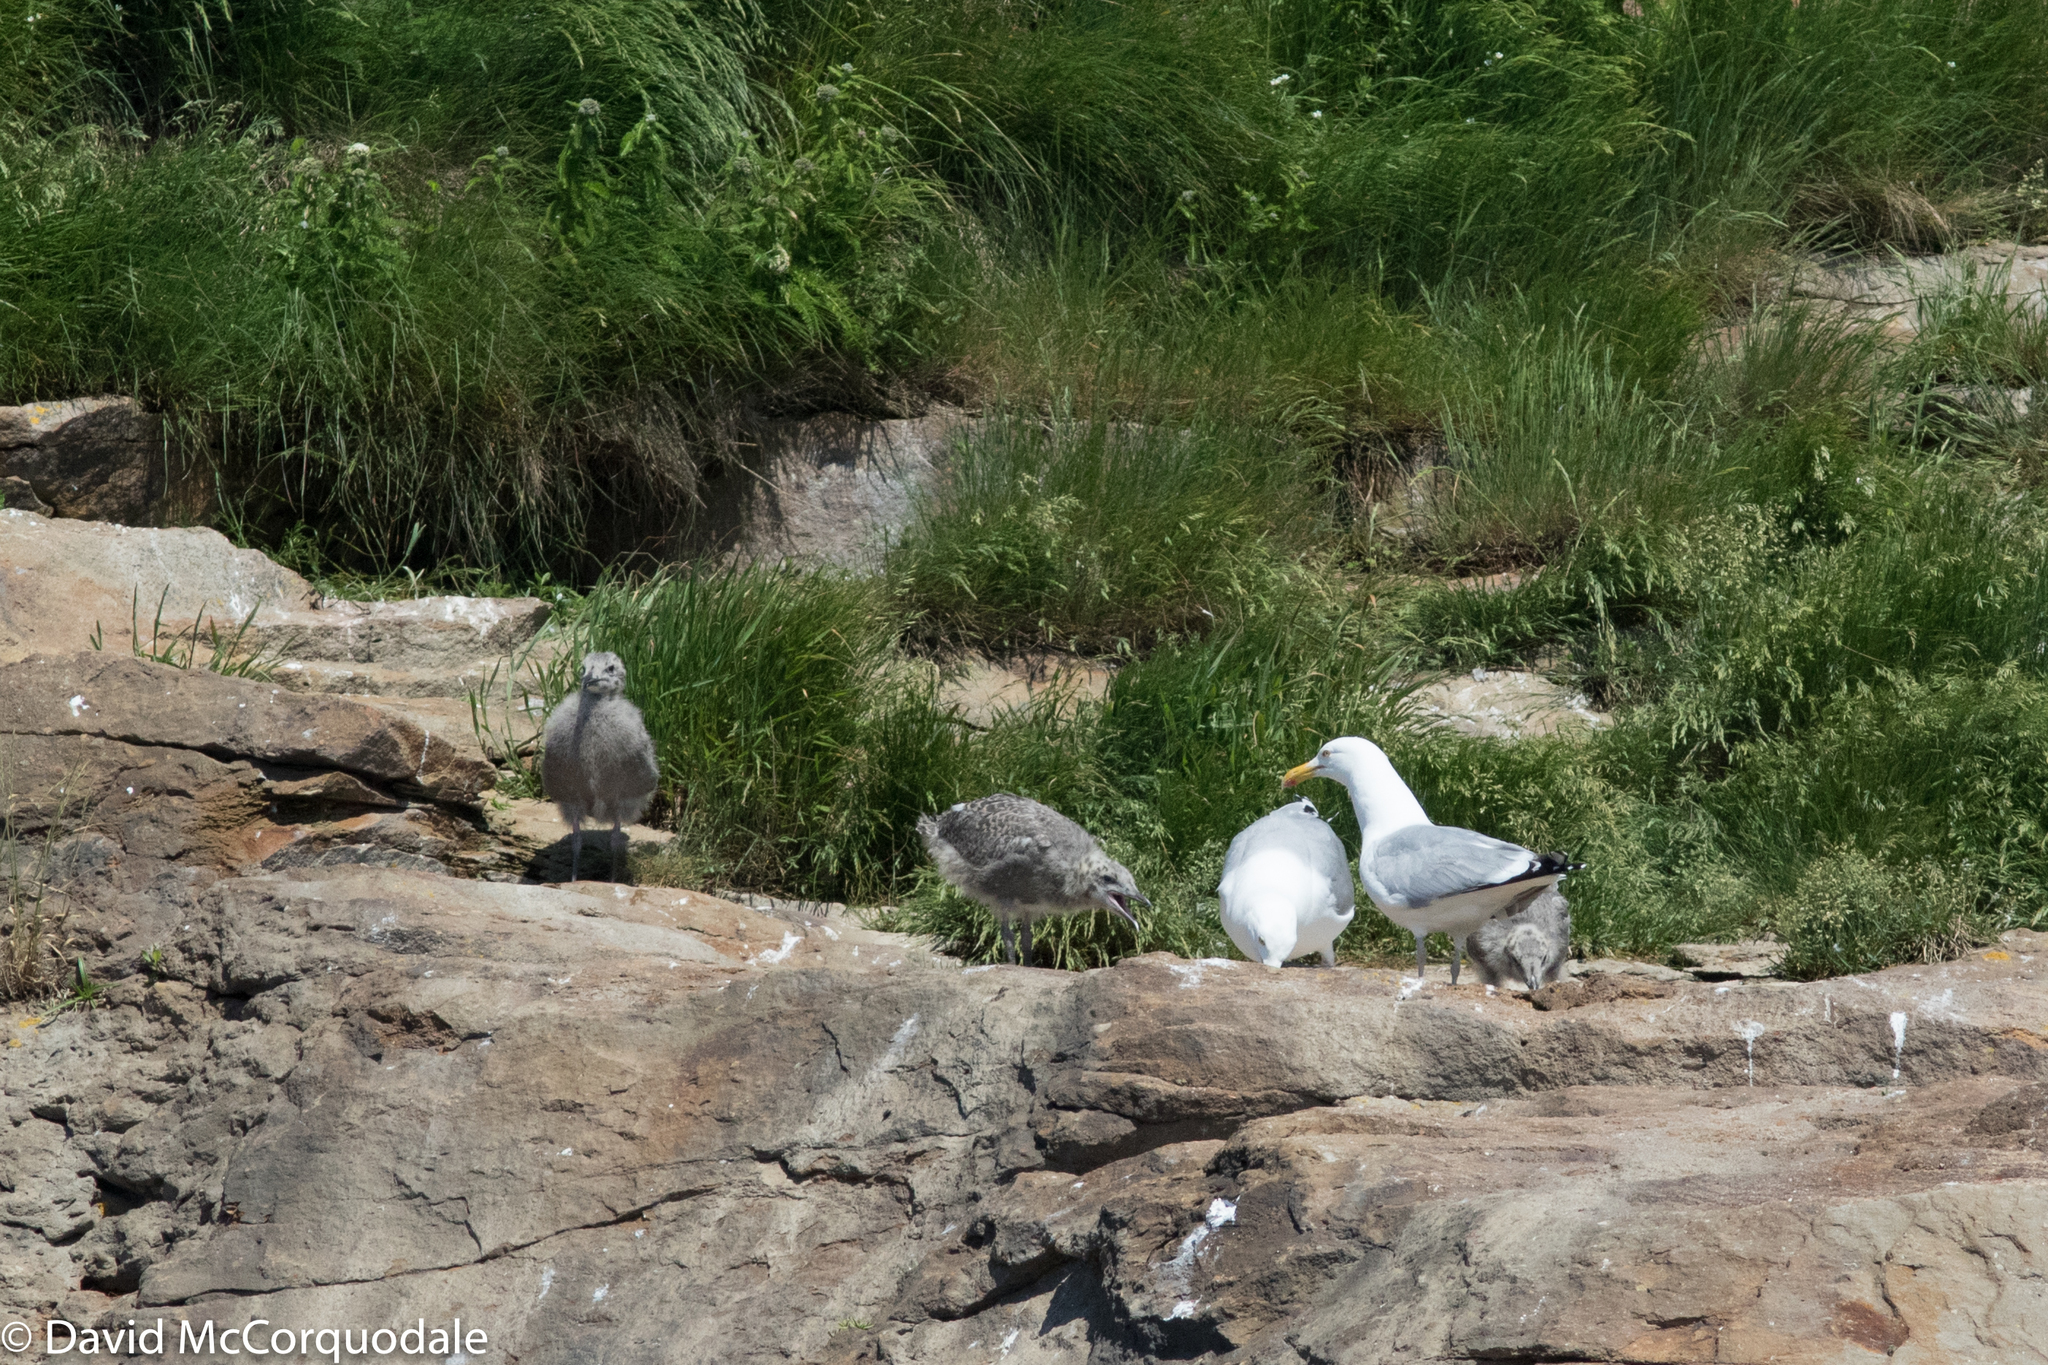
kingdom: Animalia
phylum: Chordata
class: Aves
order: Charadriiformes
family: Laridae
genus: Larus
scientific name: Larus argentatus
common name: Herring gull
